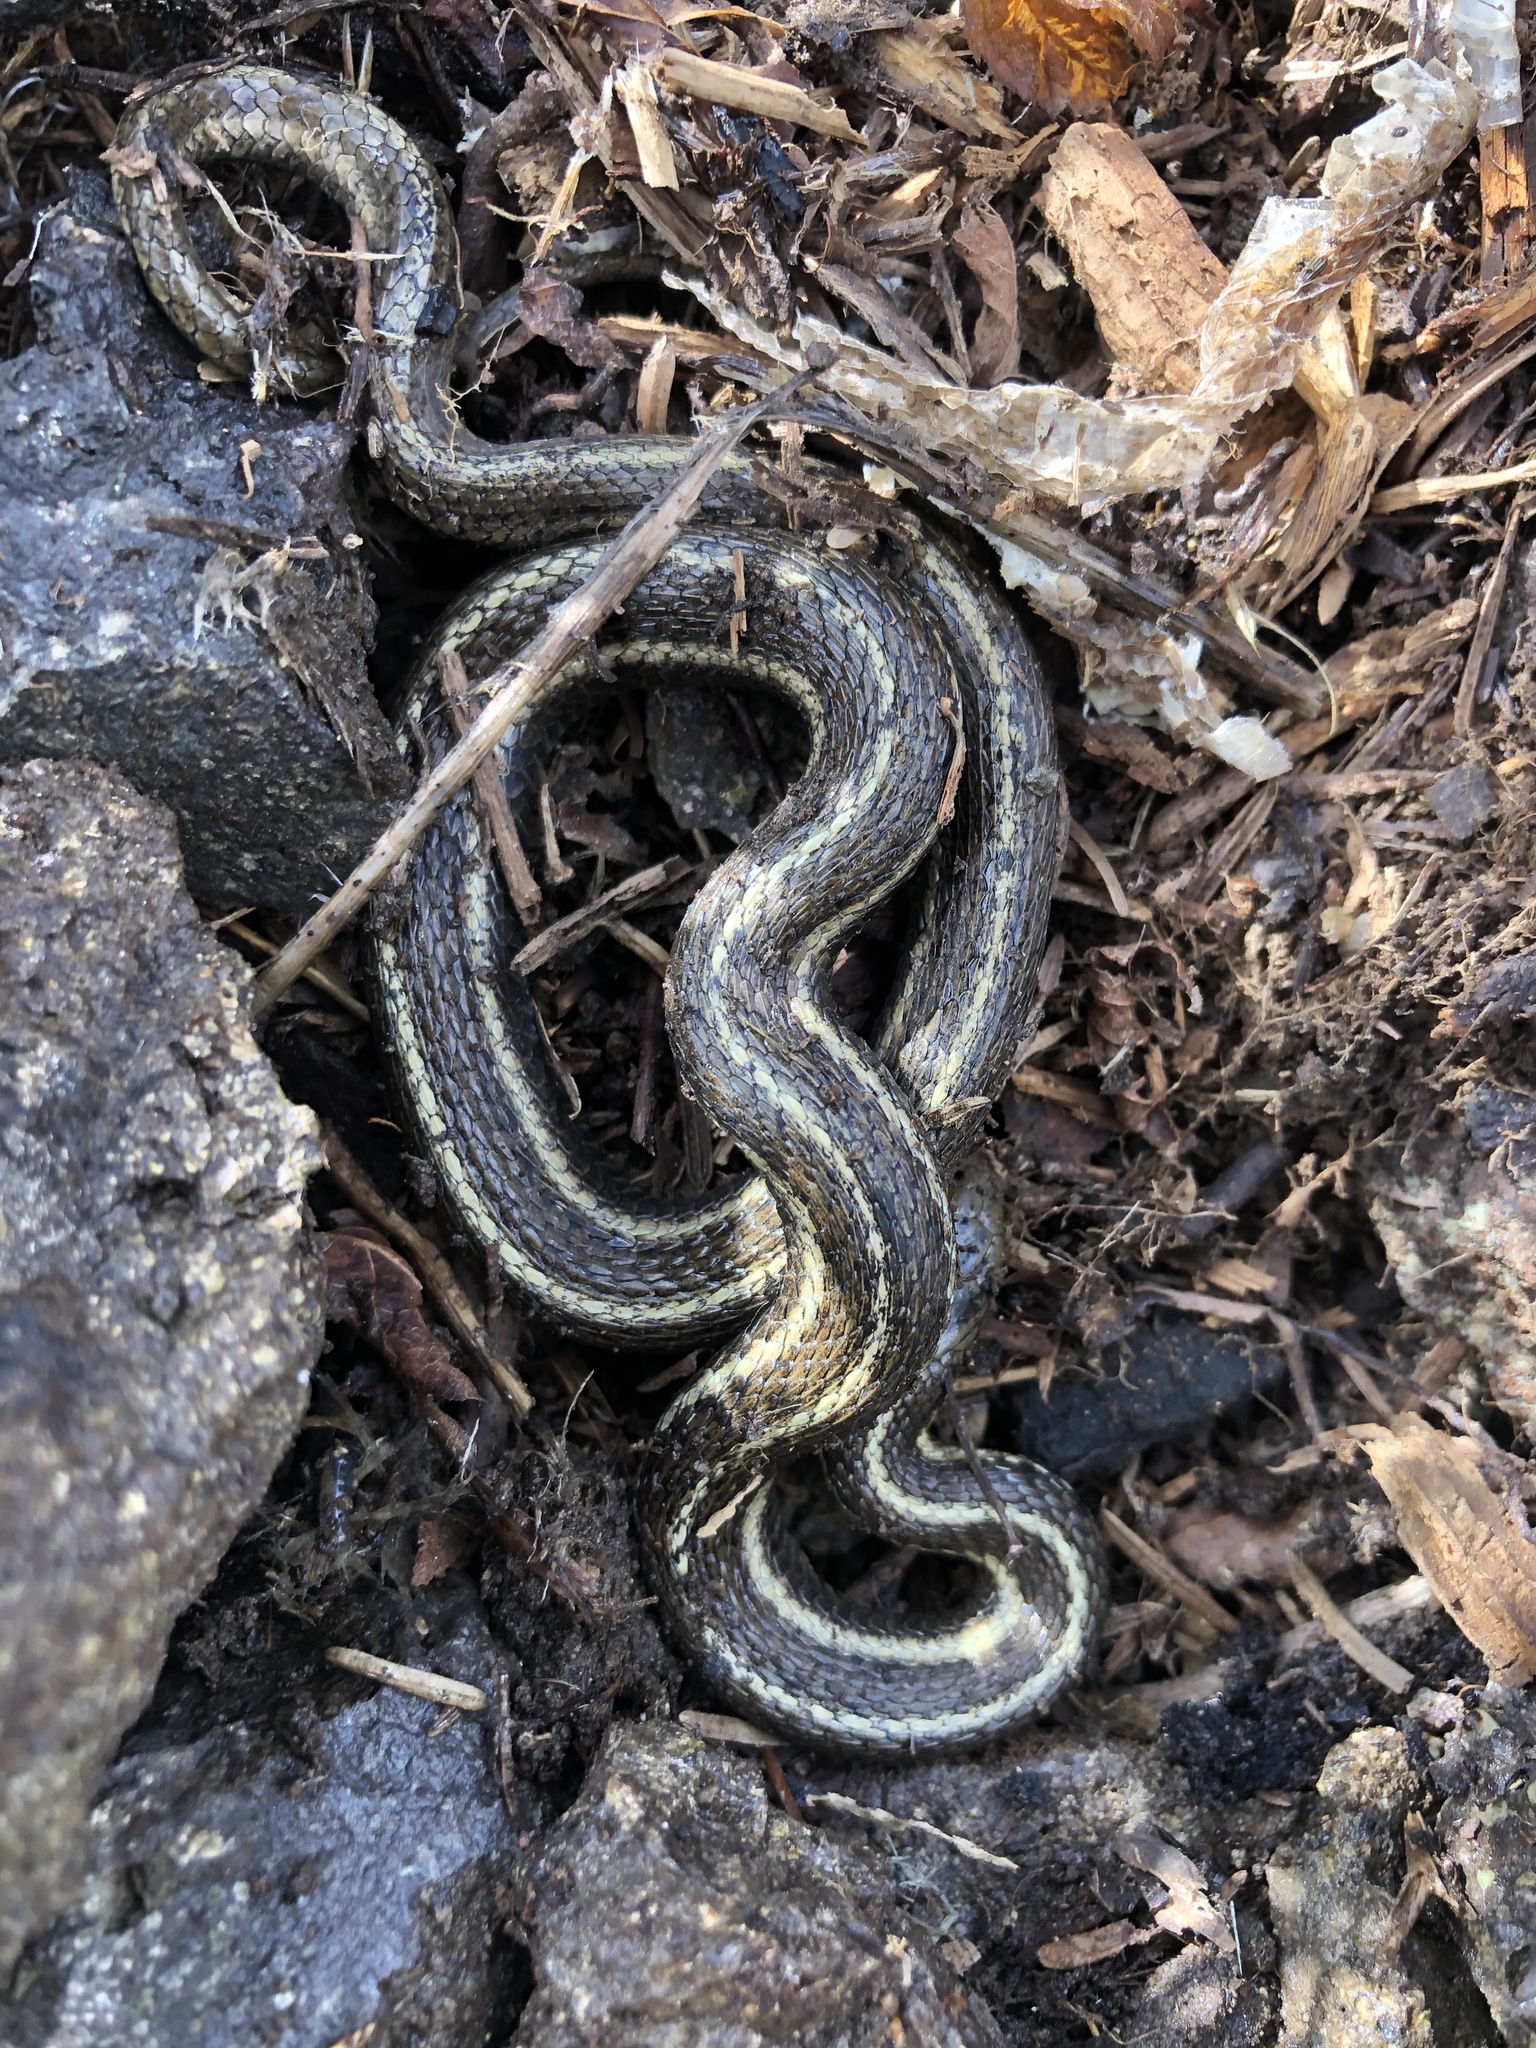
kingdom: Animalia
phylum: Chordata
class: Squamata
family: Colubridae
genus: Thamnophis
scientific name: Thamnophis ordinoides
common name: Northwestern garter snake
